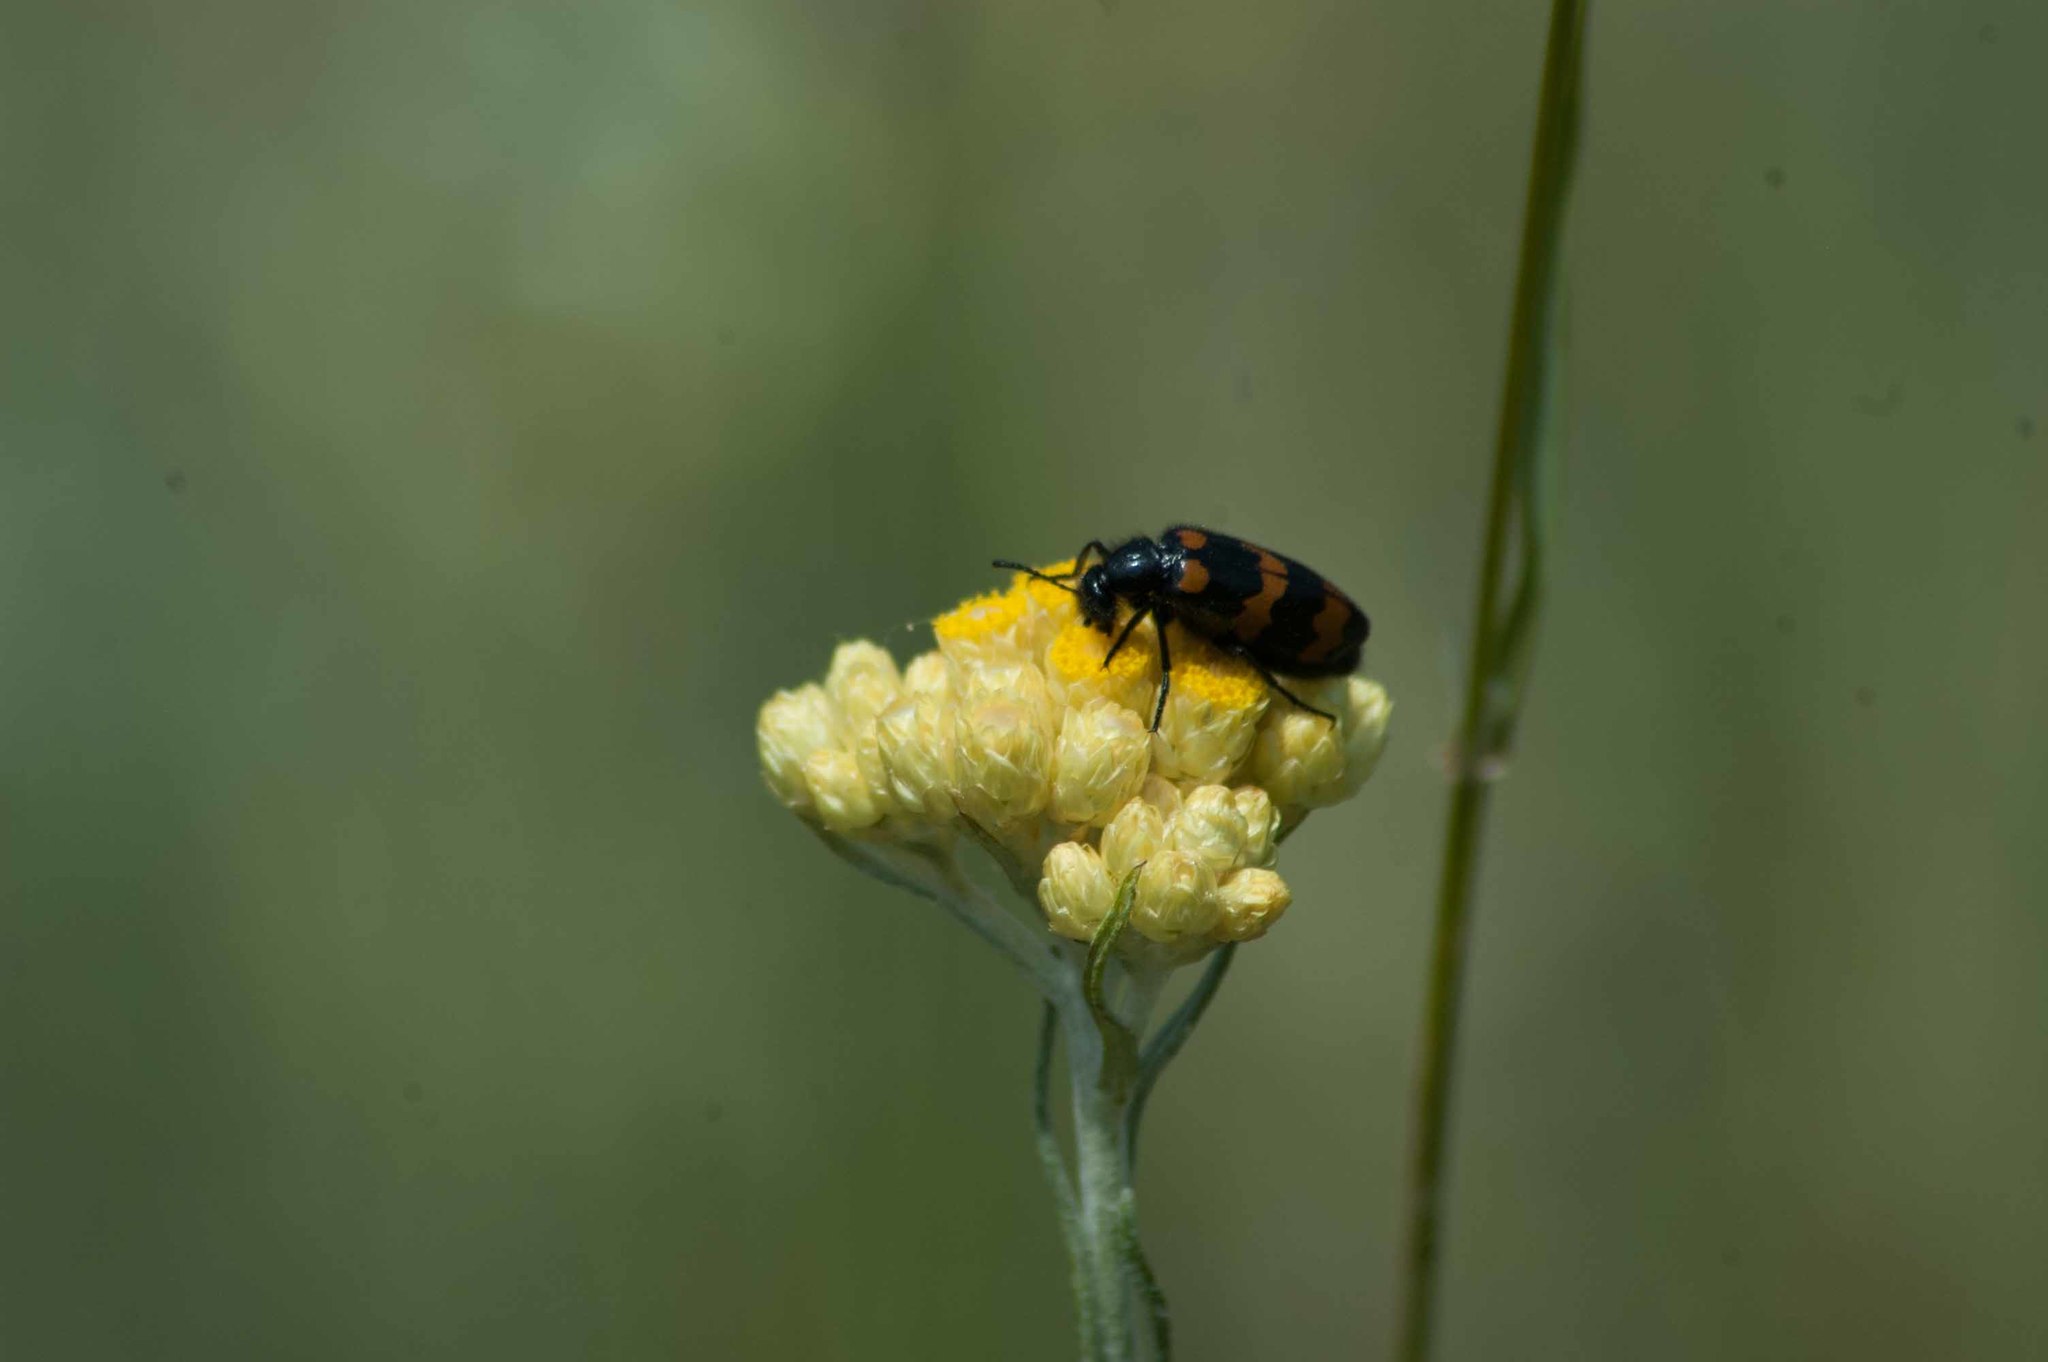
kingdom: Animalia
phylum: Arthropoda
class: Insecta
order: Coleoptera
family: Meloidae
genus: Mylabris
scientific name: Mylabris variabilis
